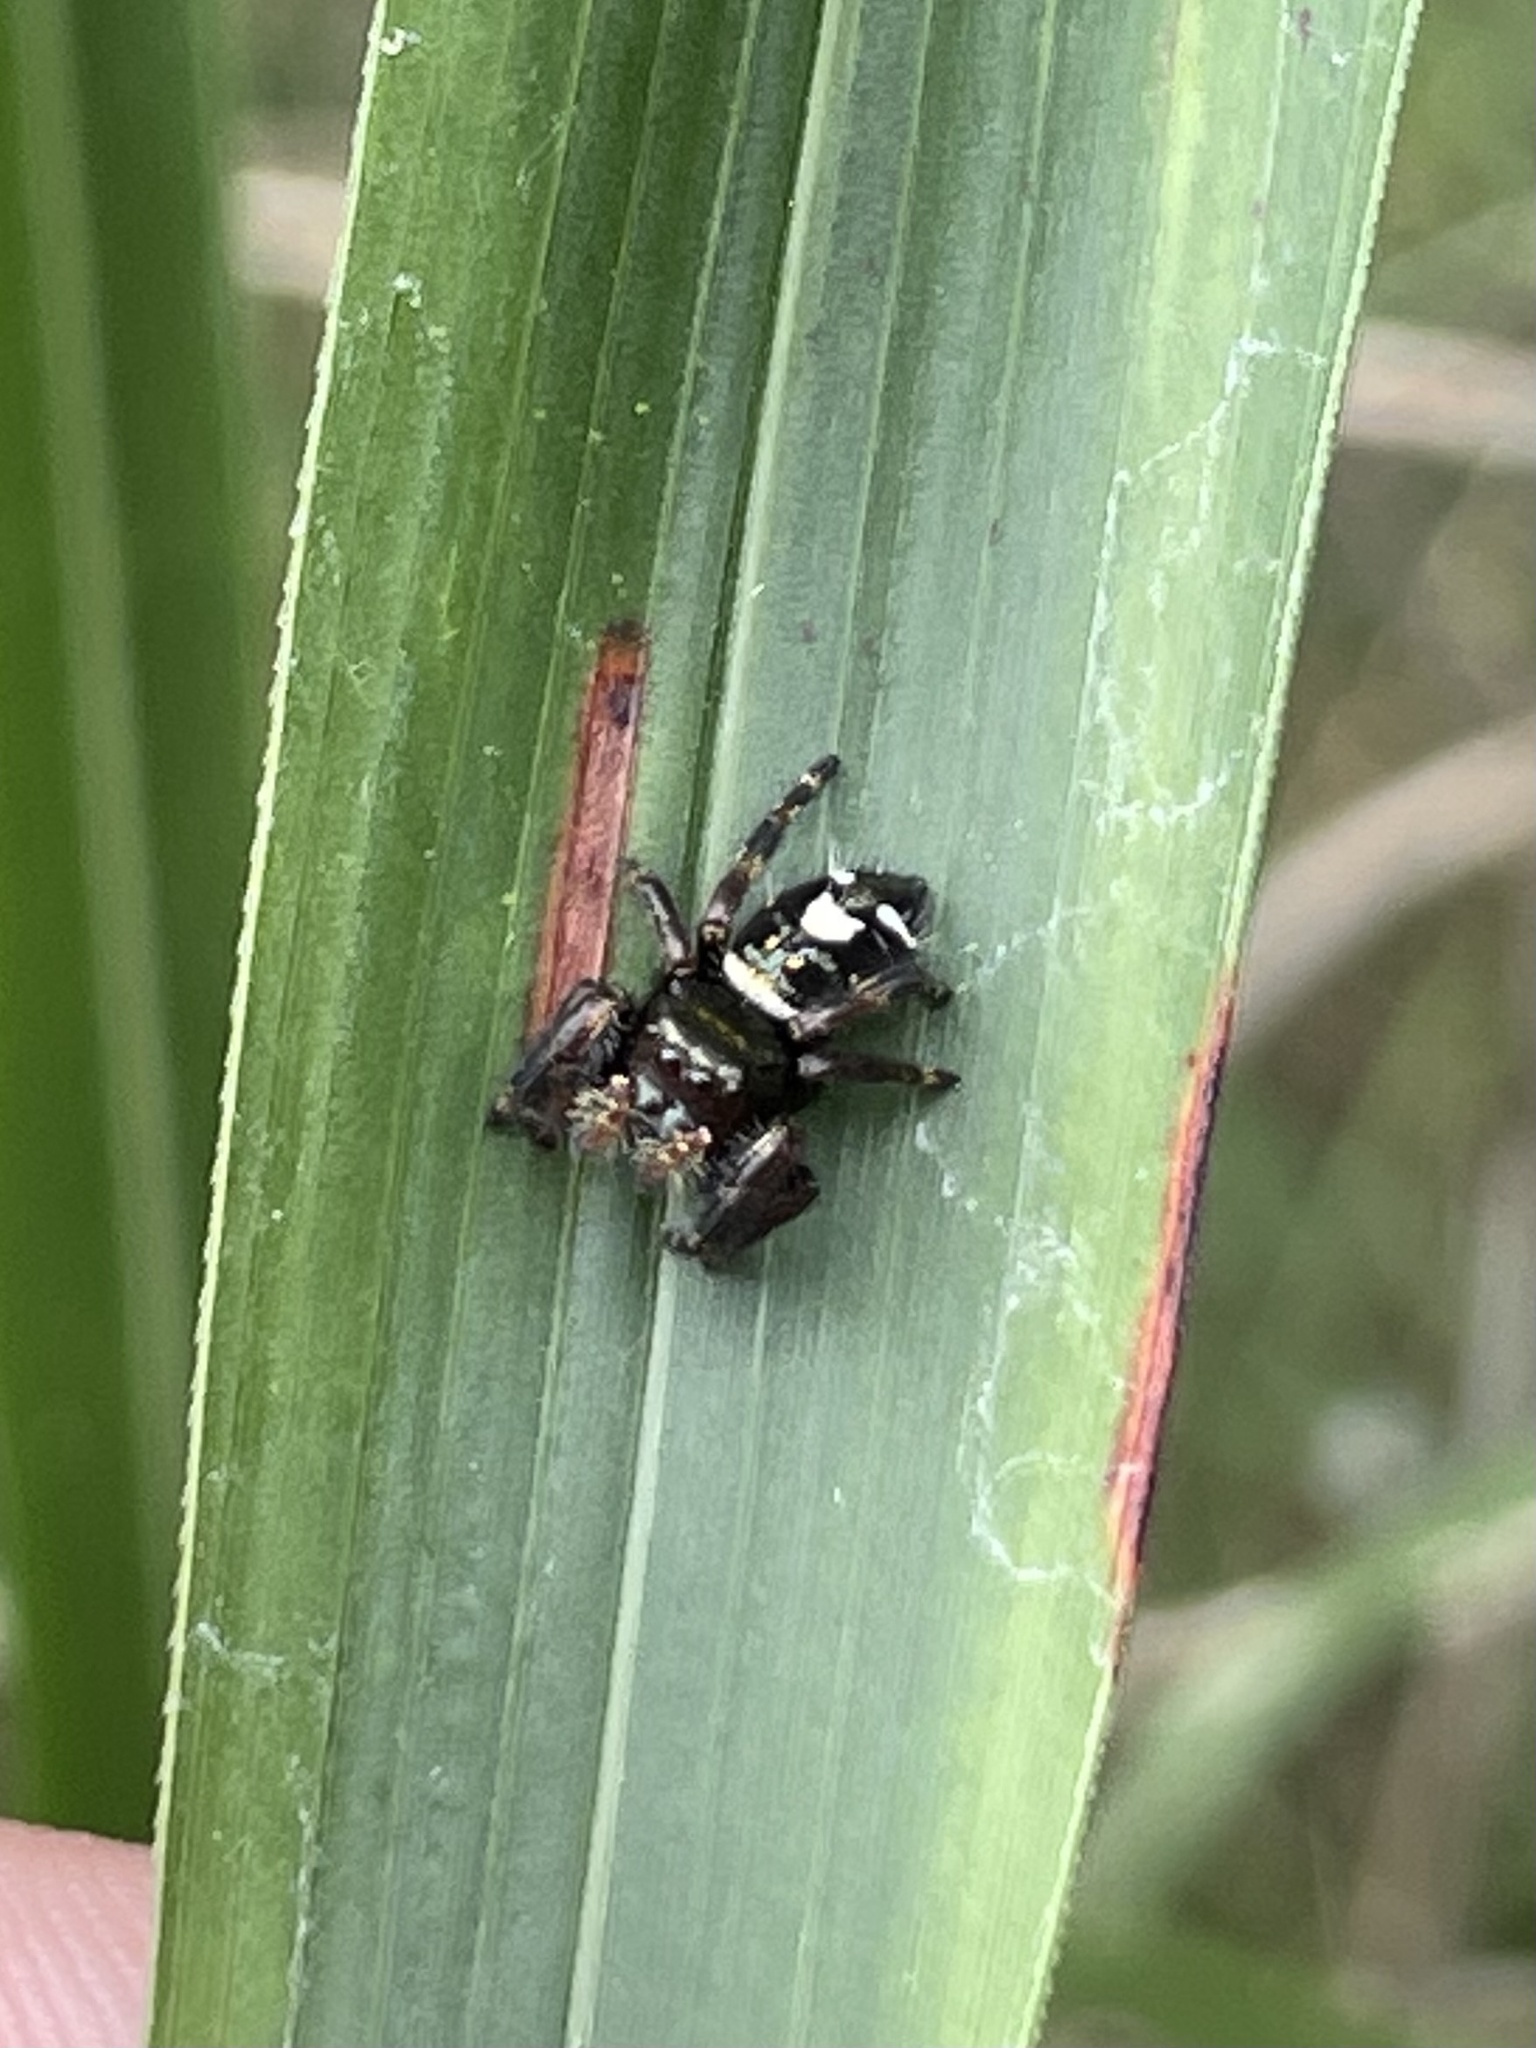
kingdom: Animalia
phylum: Arthropoda
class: Arachnida
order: Araneae
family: Salticidae
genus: Phidippus
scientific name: Phidippus audax
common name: Bold jumper
